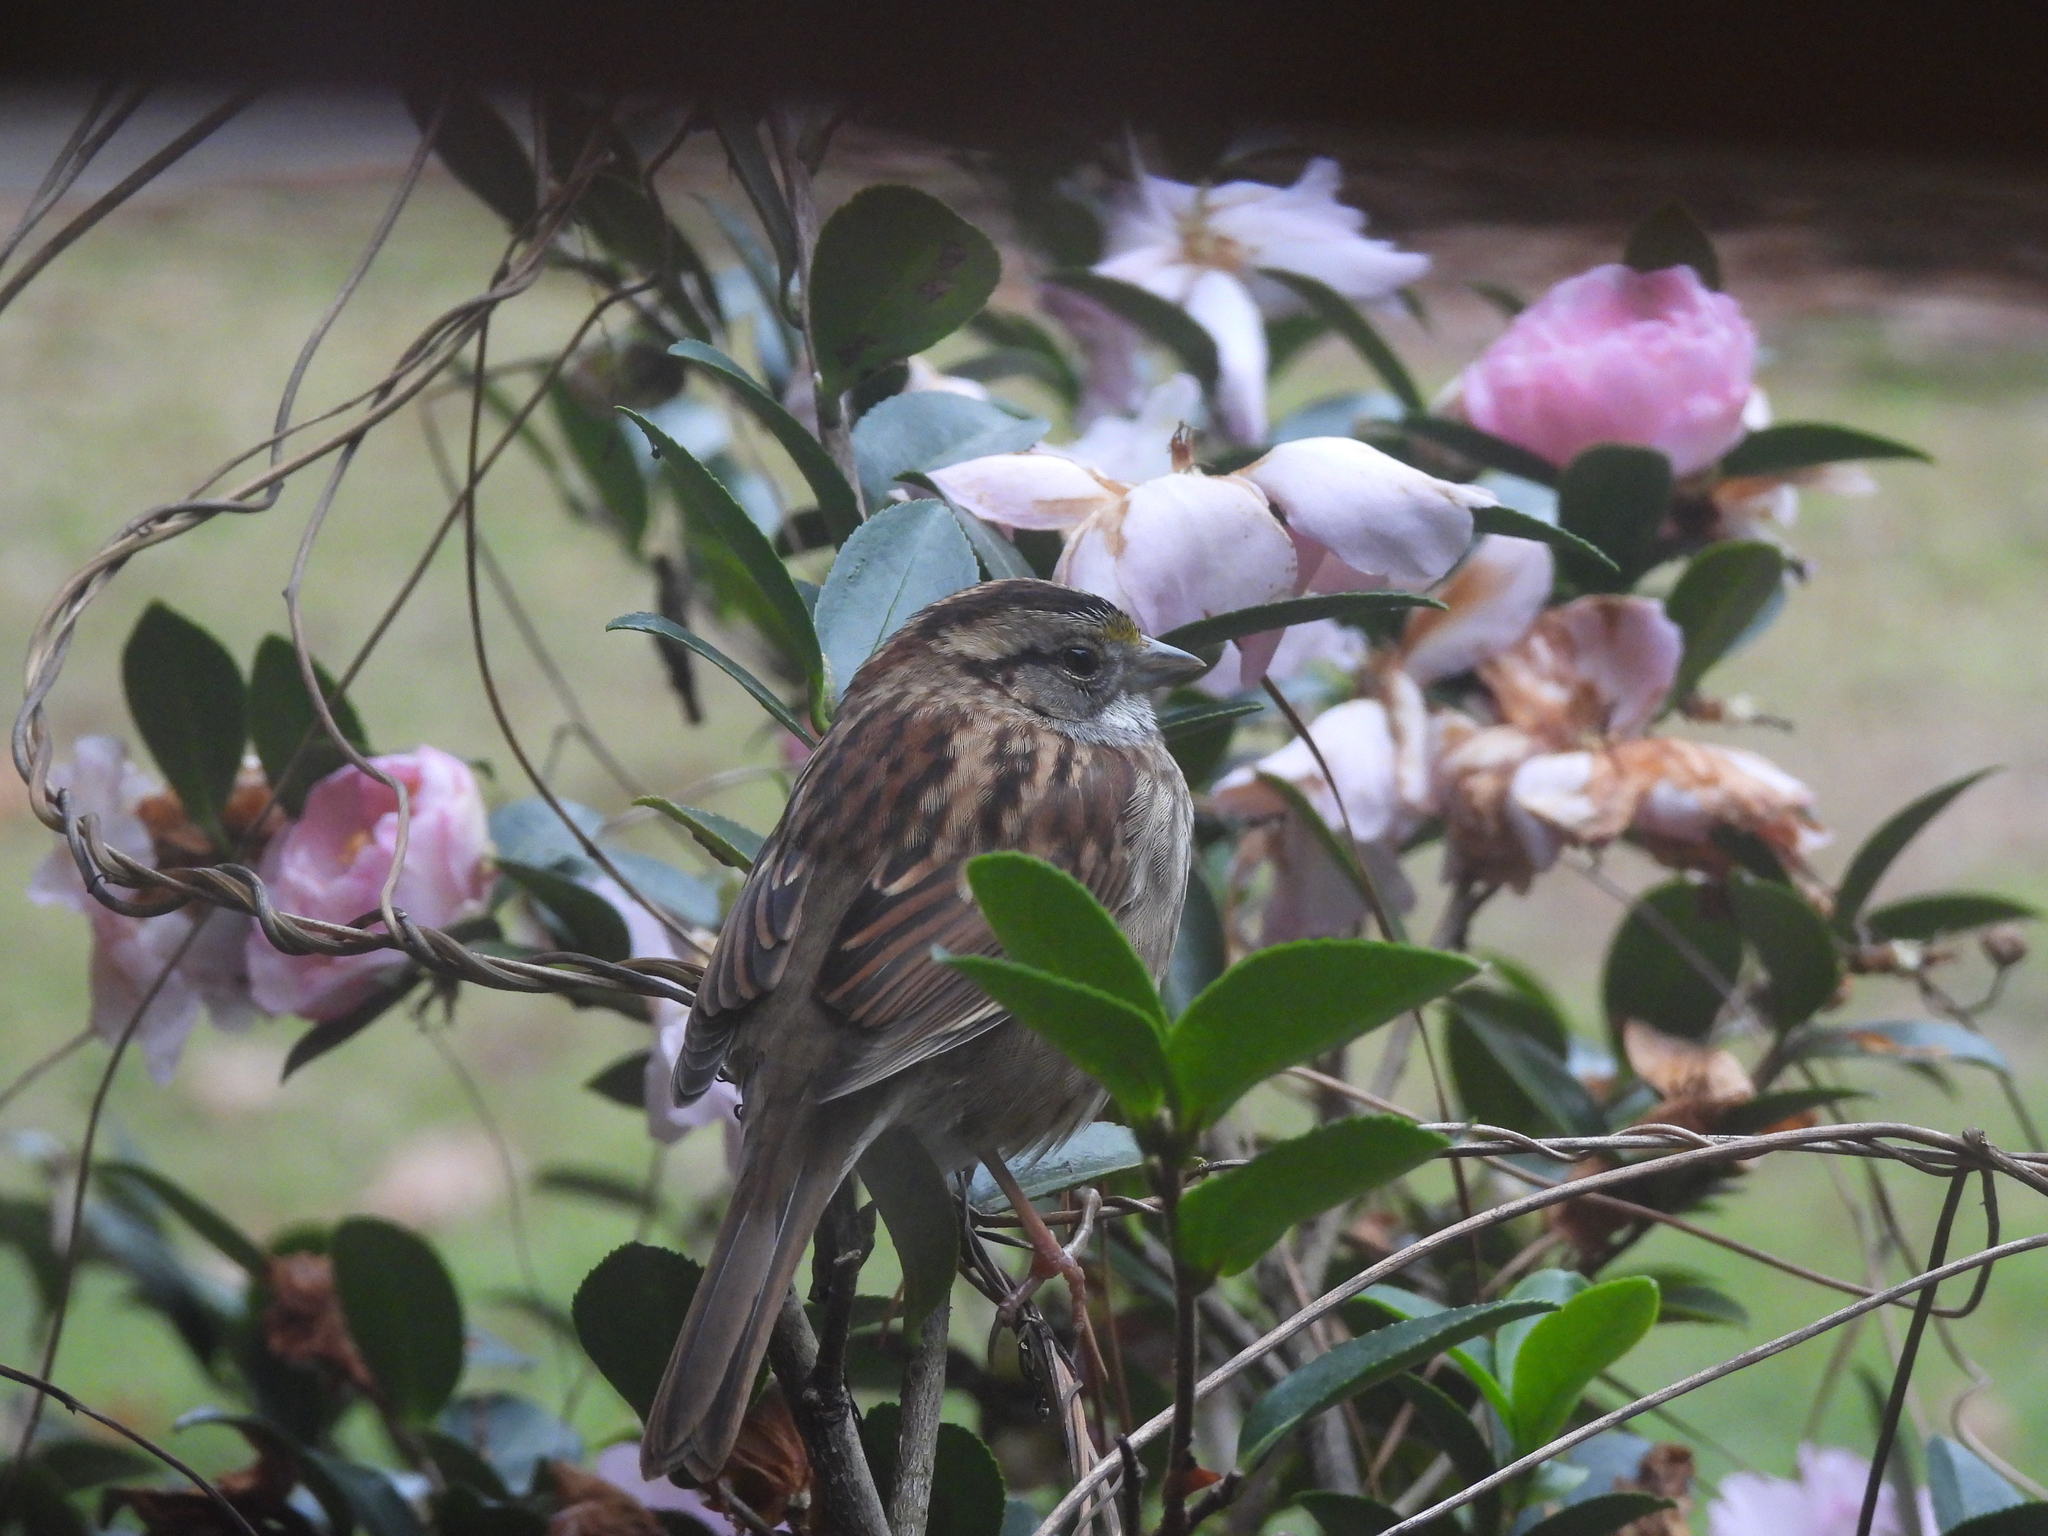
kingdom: Animalia
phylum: Chordata
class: Aves
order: Passeriformes
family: Passerellidae
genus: Zonotrichia
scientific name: Zonotrichia albicollis
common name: White-throated sparrow
